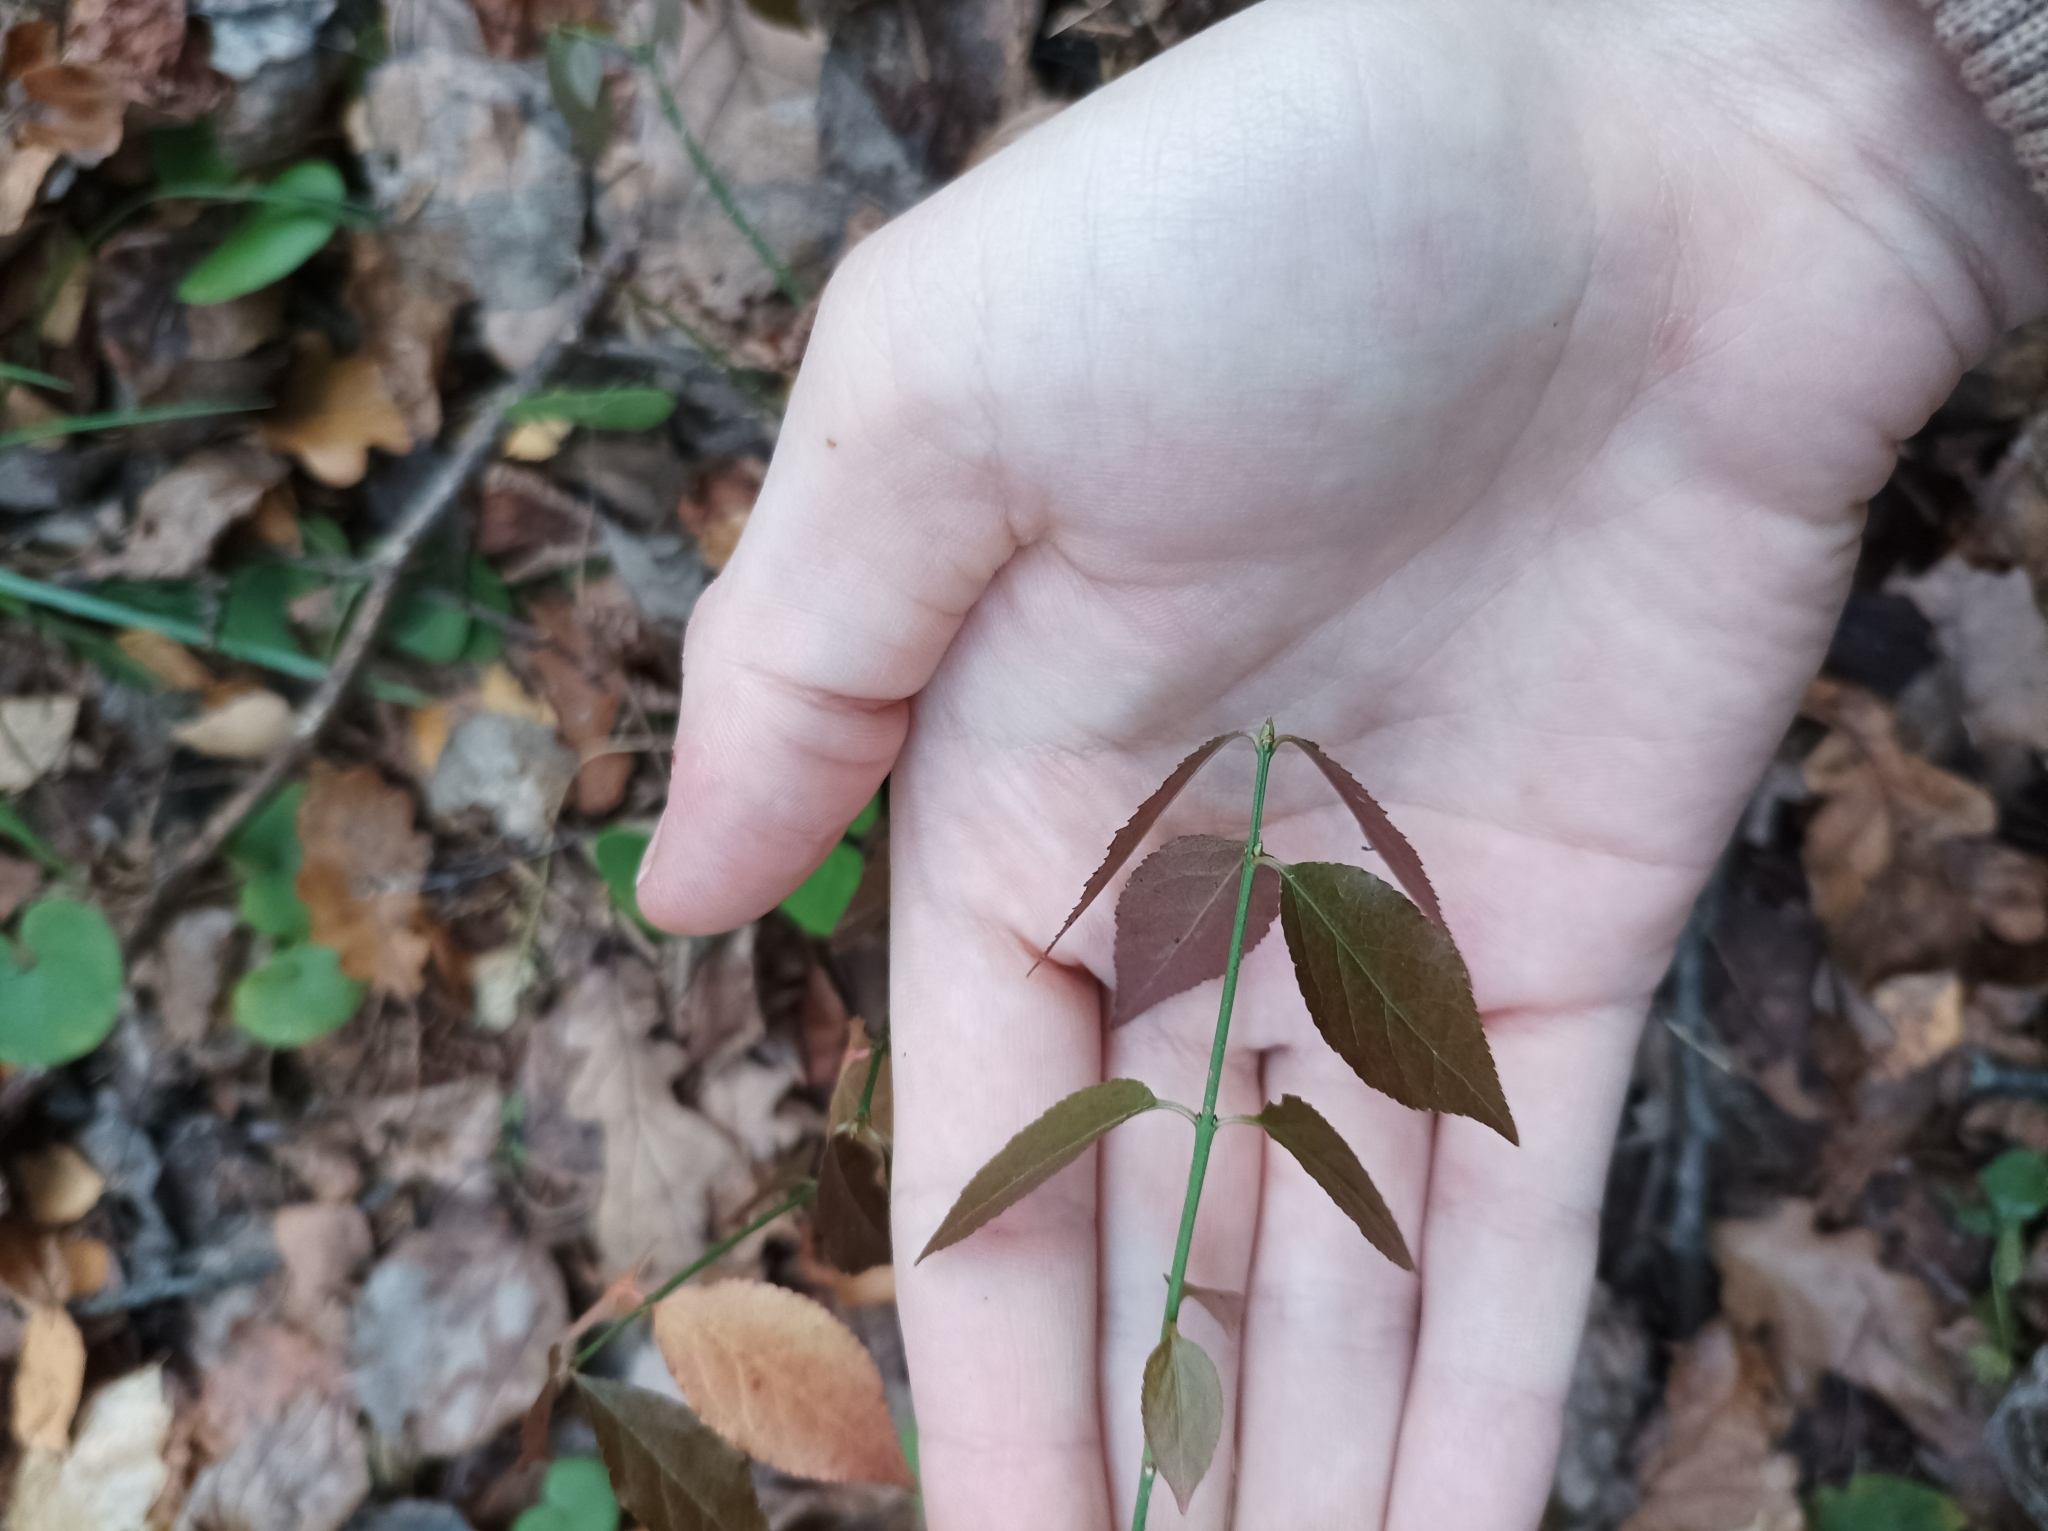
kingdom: Plantae
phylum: Tracheophyta
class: Magnoliopsida
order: Celastrales
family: Celastraceae
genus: Euonymus
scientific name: Euonymus europaeus
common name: Spindle
